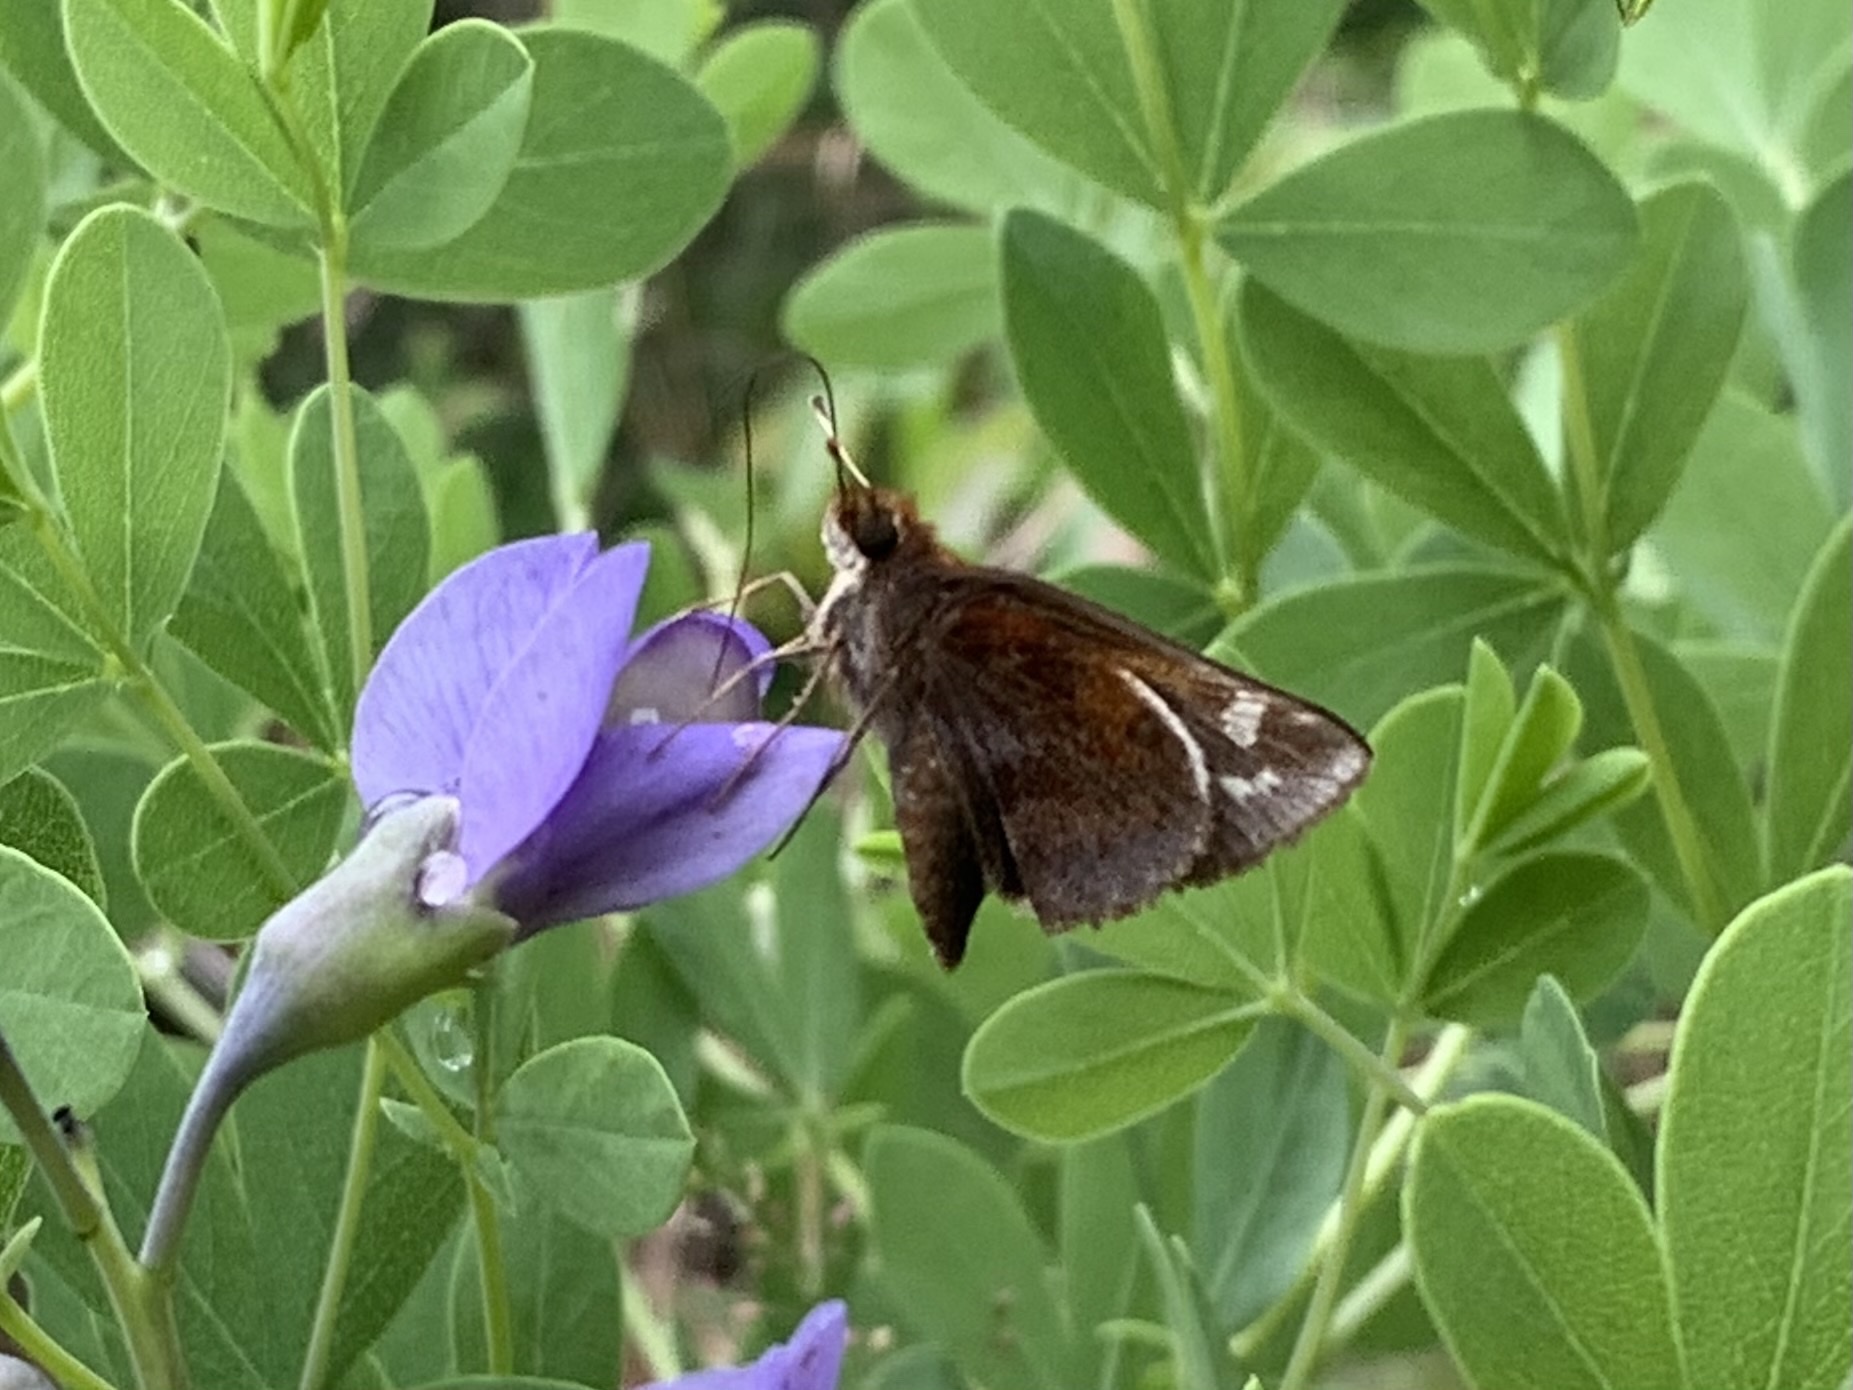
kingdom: Animalia
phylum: Arthropoda
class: Insecta
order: Lepidoptera
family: Hesperiidae
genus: Lon
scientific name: Lon zabulon
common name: Zabulon skipper
